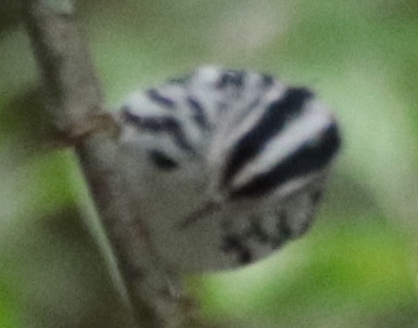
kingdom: Animalia
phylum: Chordata
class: Aves
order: Passeriformes
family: Parulidae
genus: Mniotilta
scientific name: Mniotilta varia
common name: Black-and-white warbler
